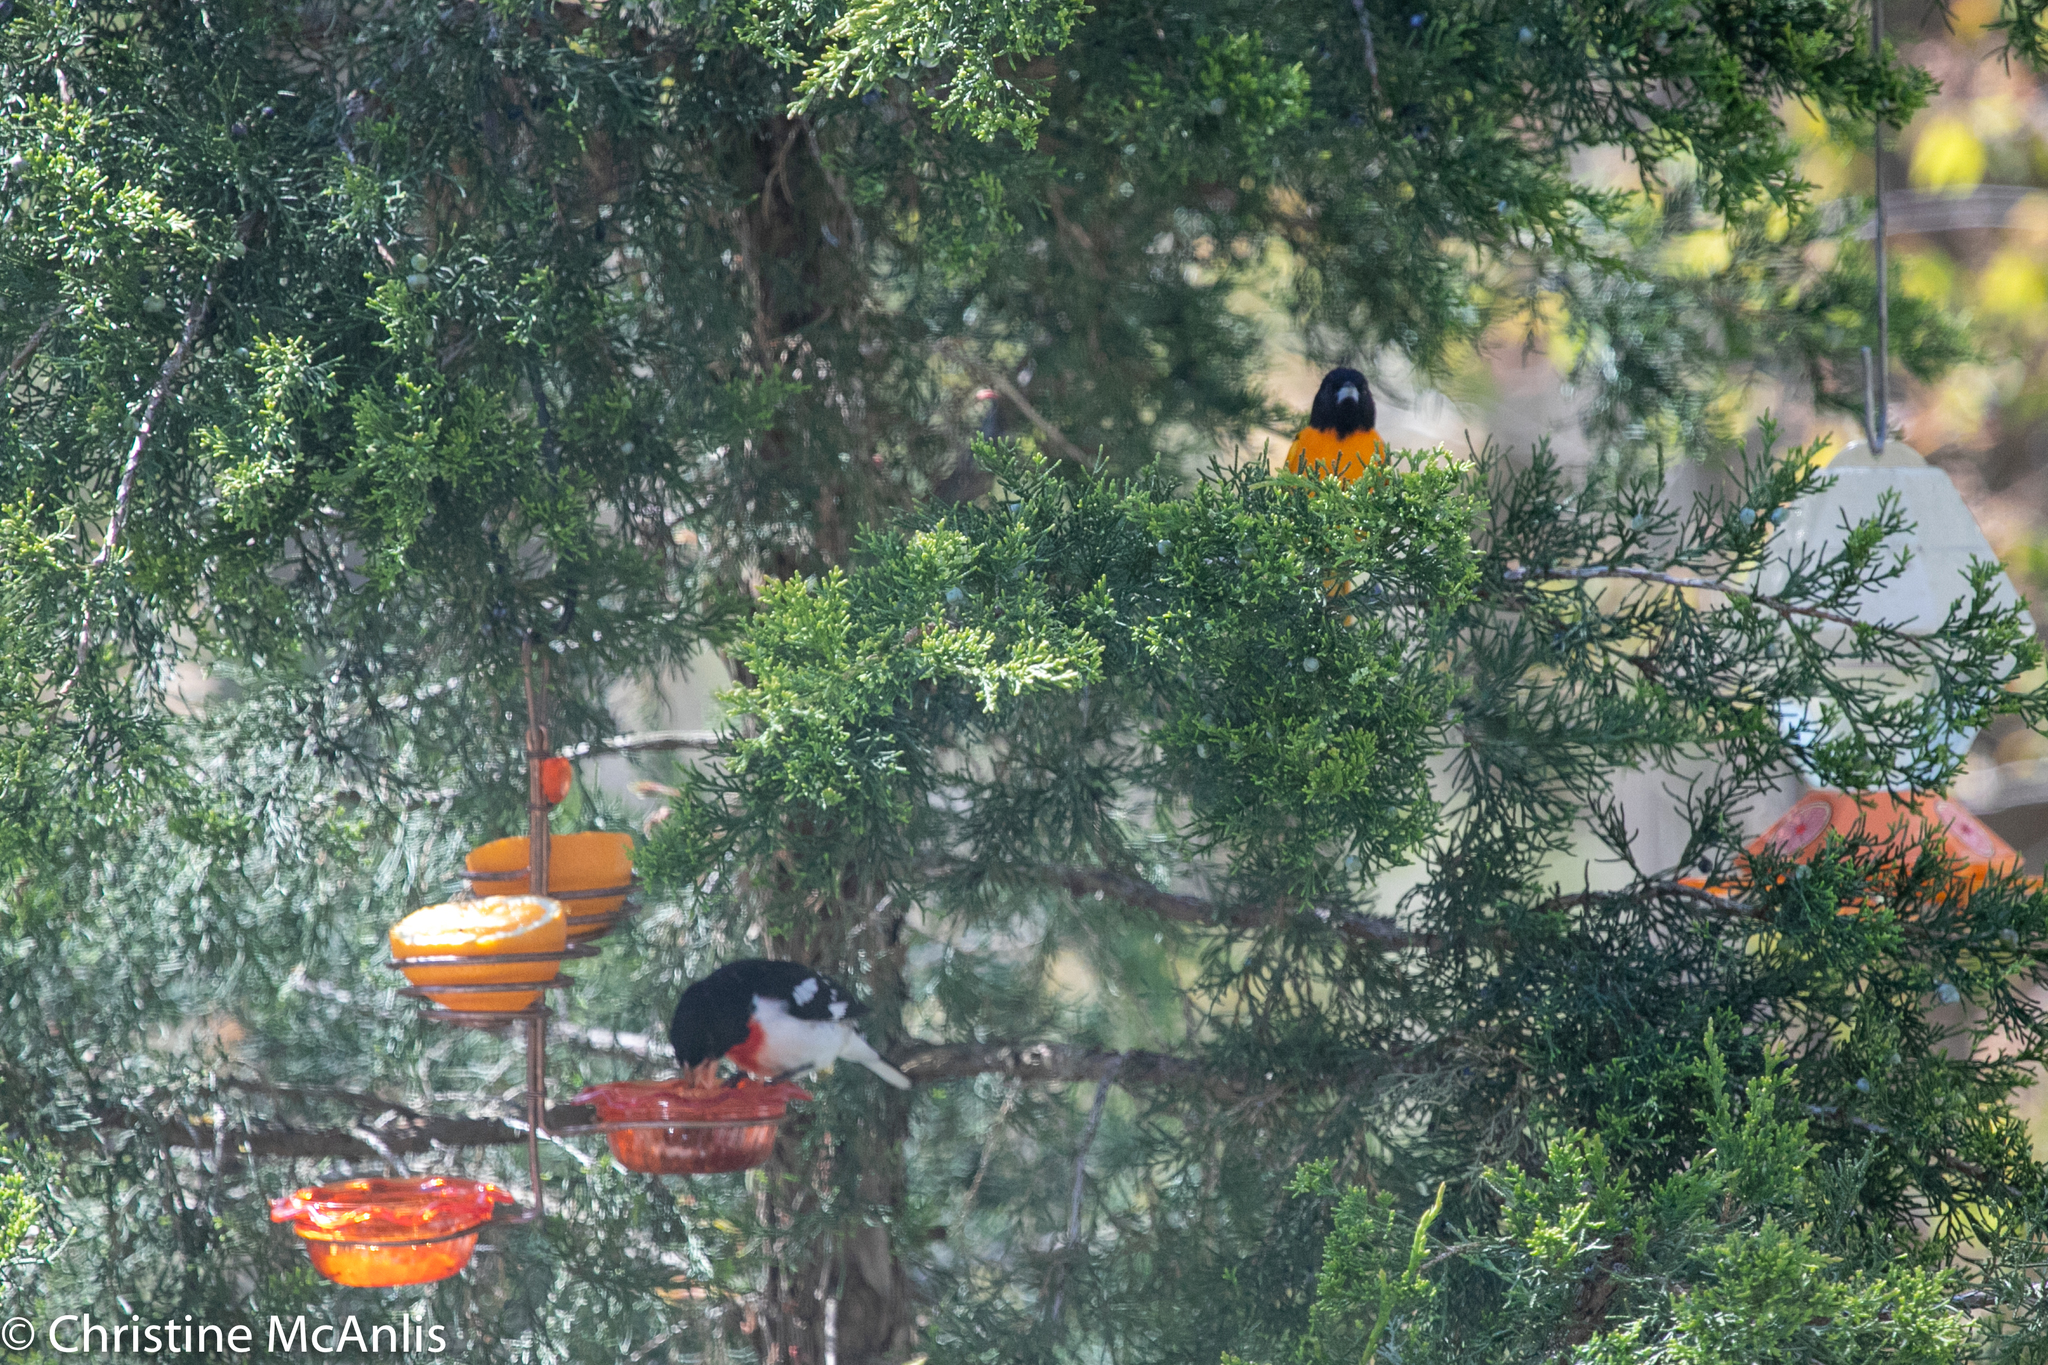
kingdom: Animalia
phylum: Chordata
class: Aves
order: Passeriformes
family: Cardinalidae
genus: Pheucticus
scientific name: Pheucticus ludovicianus
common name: Rose-breasted grosbeak
